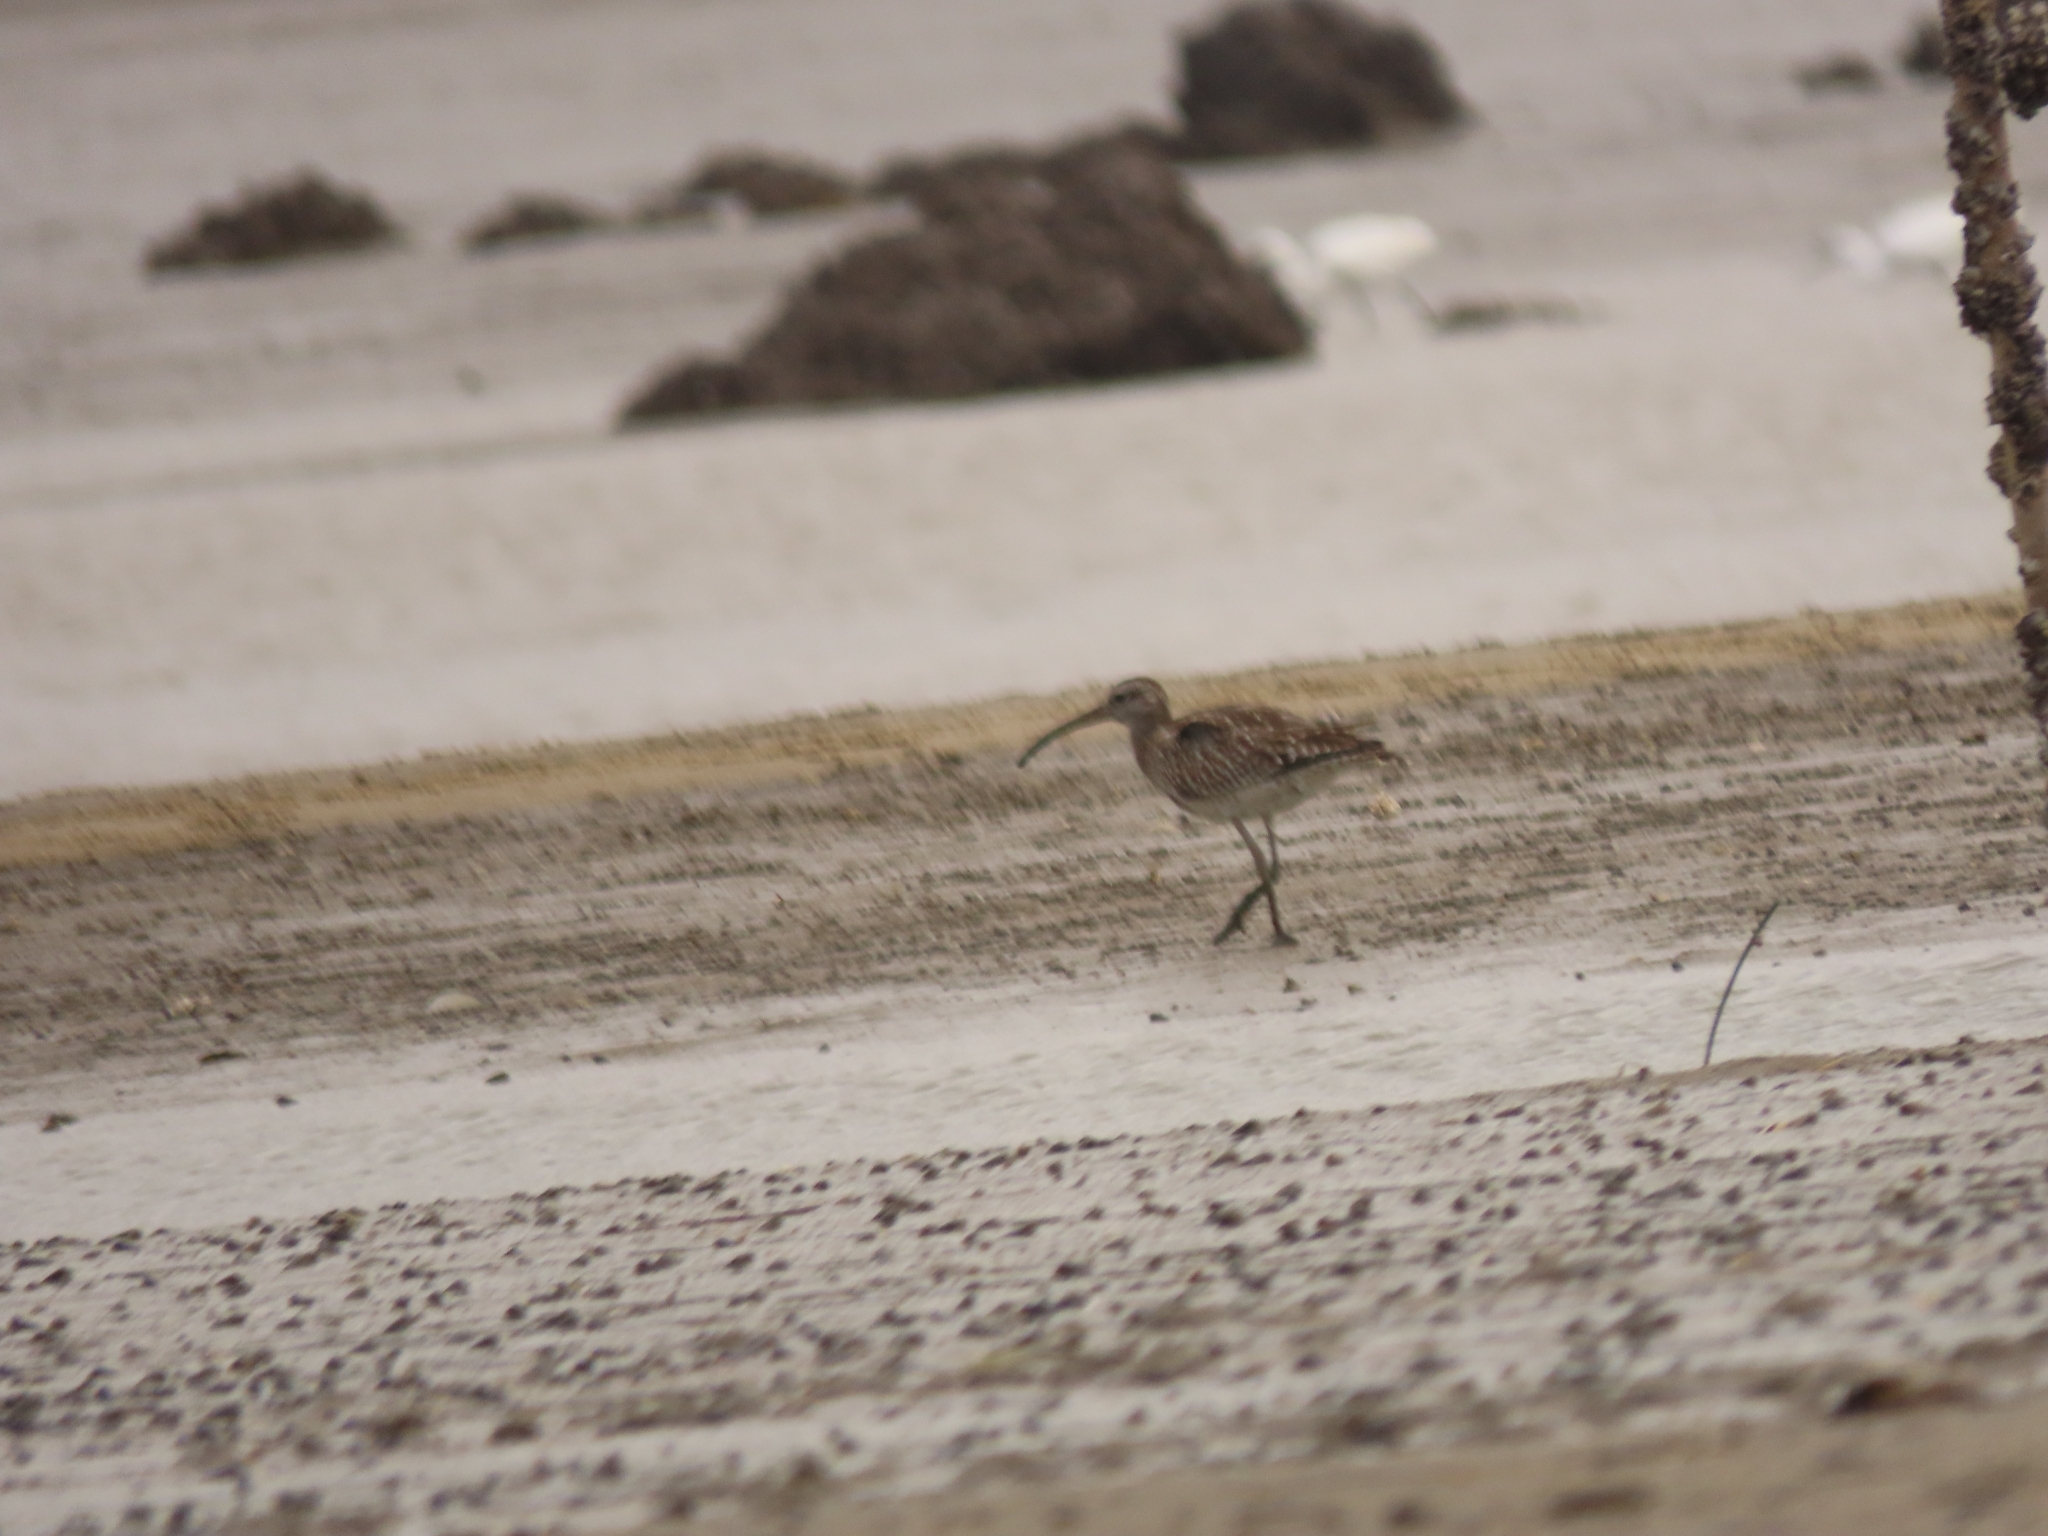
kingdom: Animalia
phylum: Chordata
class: Aves
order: Charadriiformes
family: Scolopacidae
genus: Numenius
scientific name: Numenius phaeopus
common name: Whimbrel
